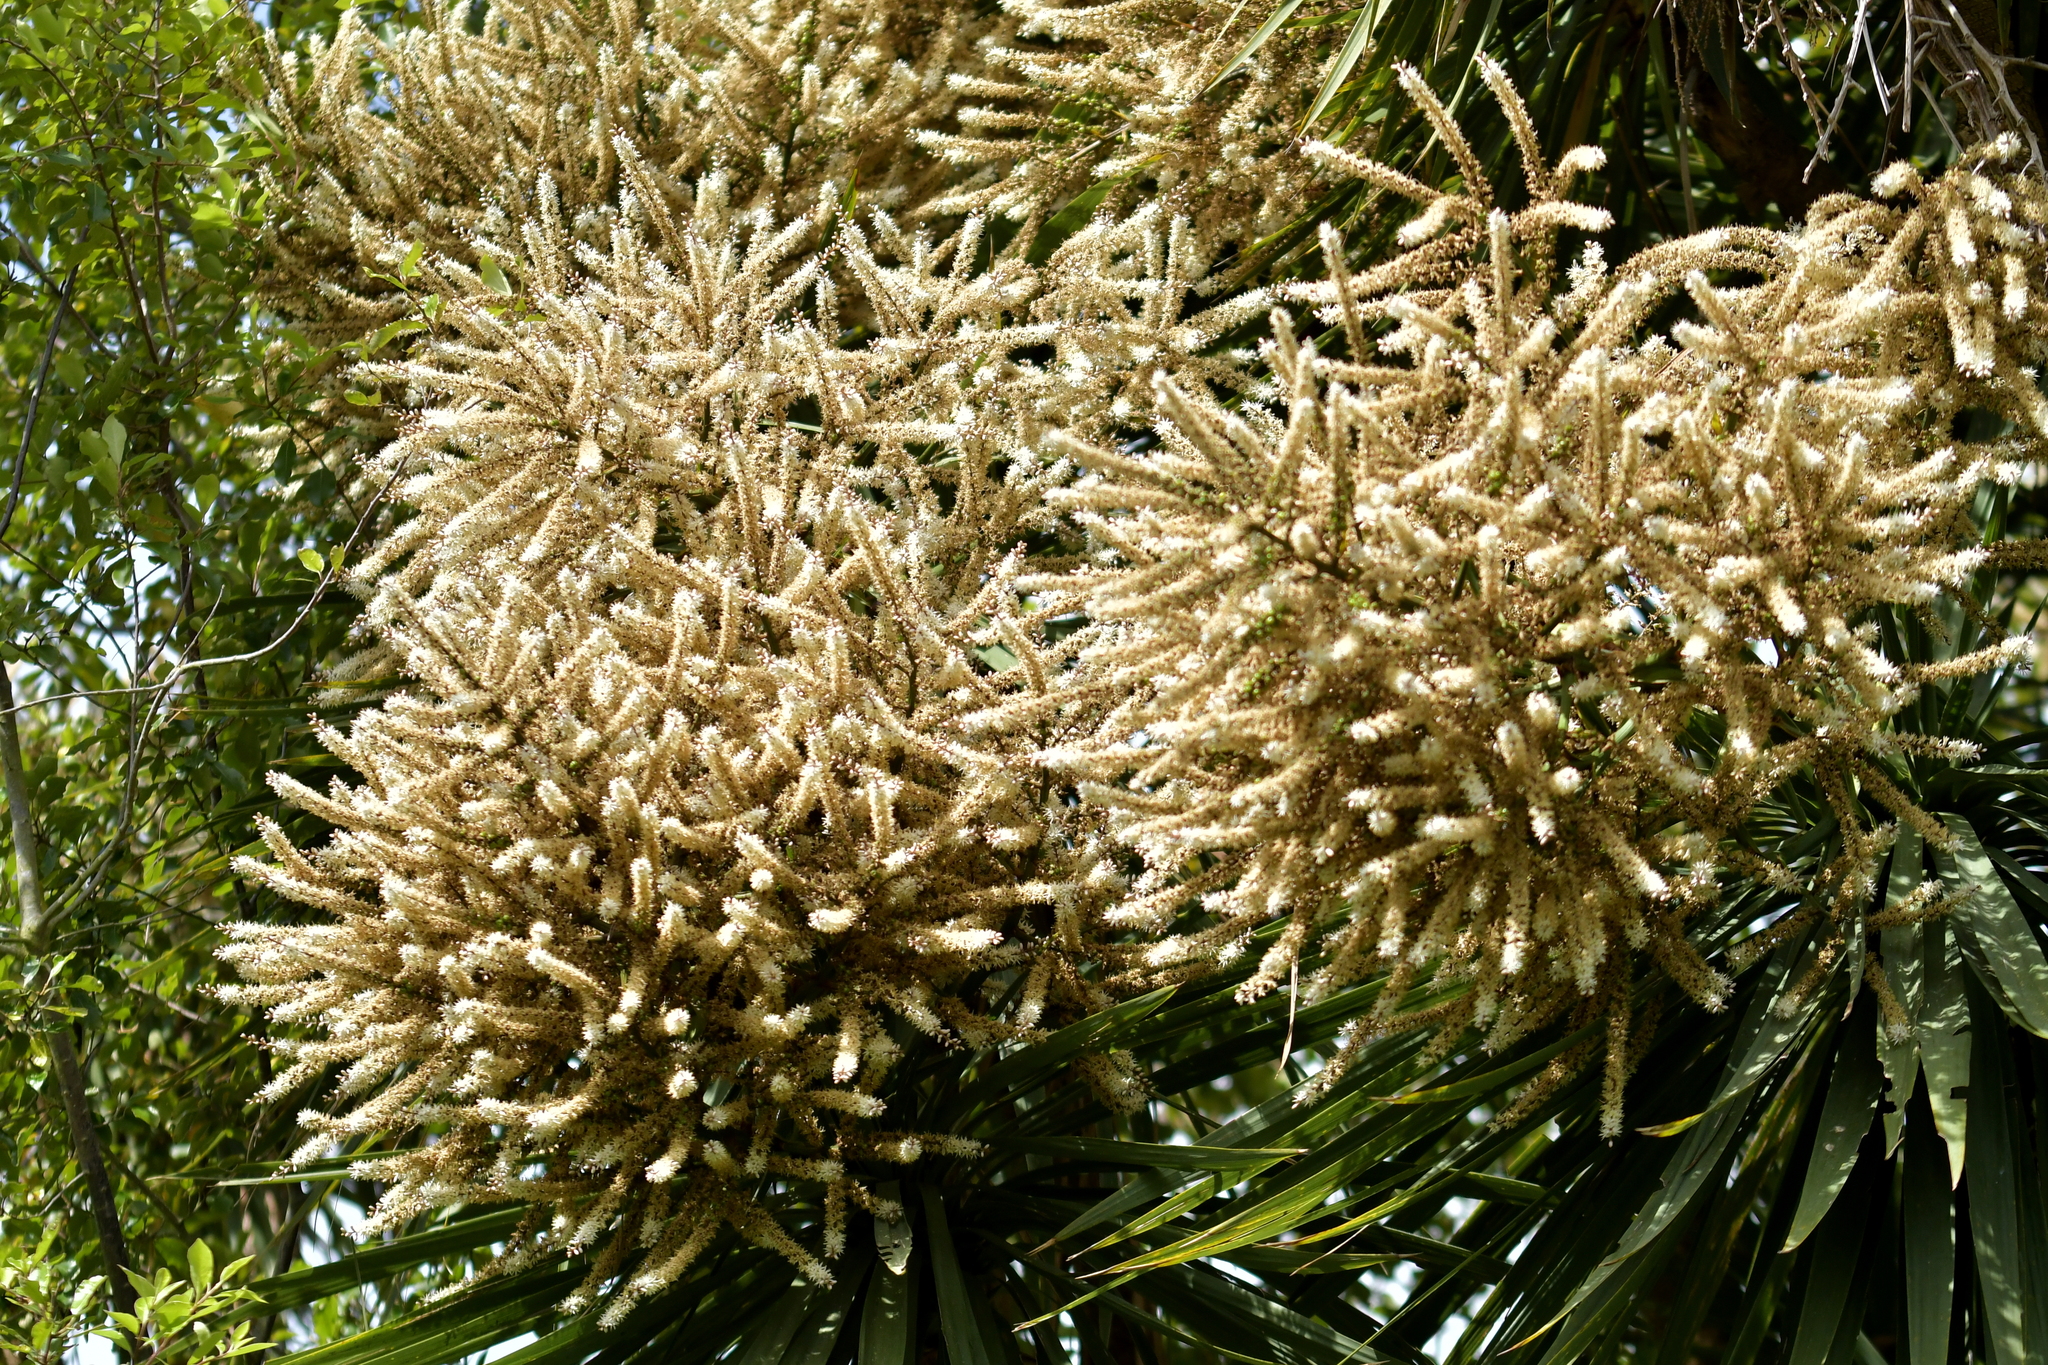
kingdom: Plantae
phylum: Tracheophyta
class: Liliopsida
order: Asparagales
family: Asparagaceae
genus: Cordyline
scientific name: Cordyline australis
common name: Cabbage-palm
